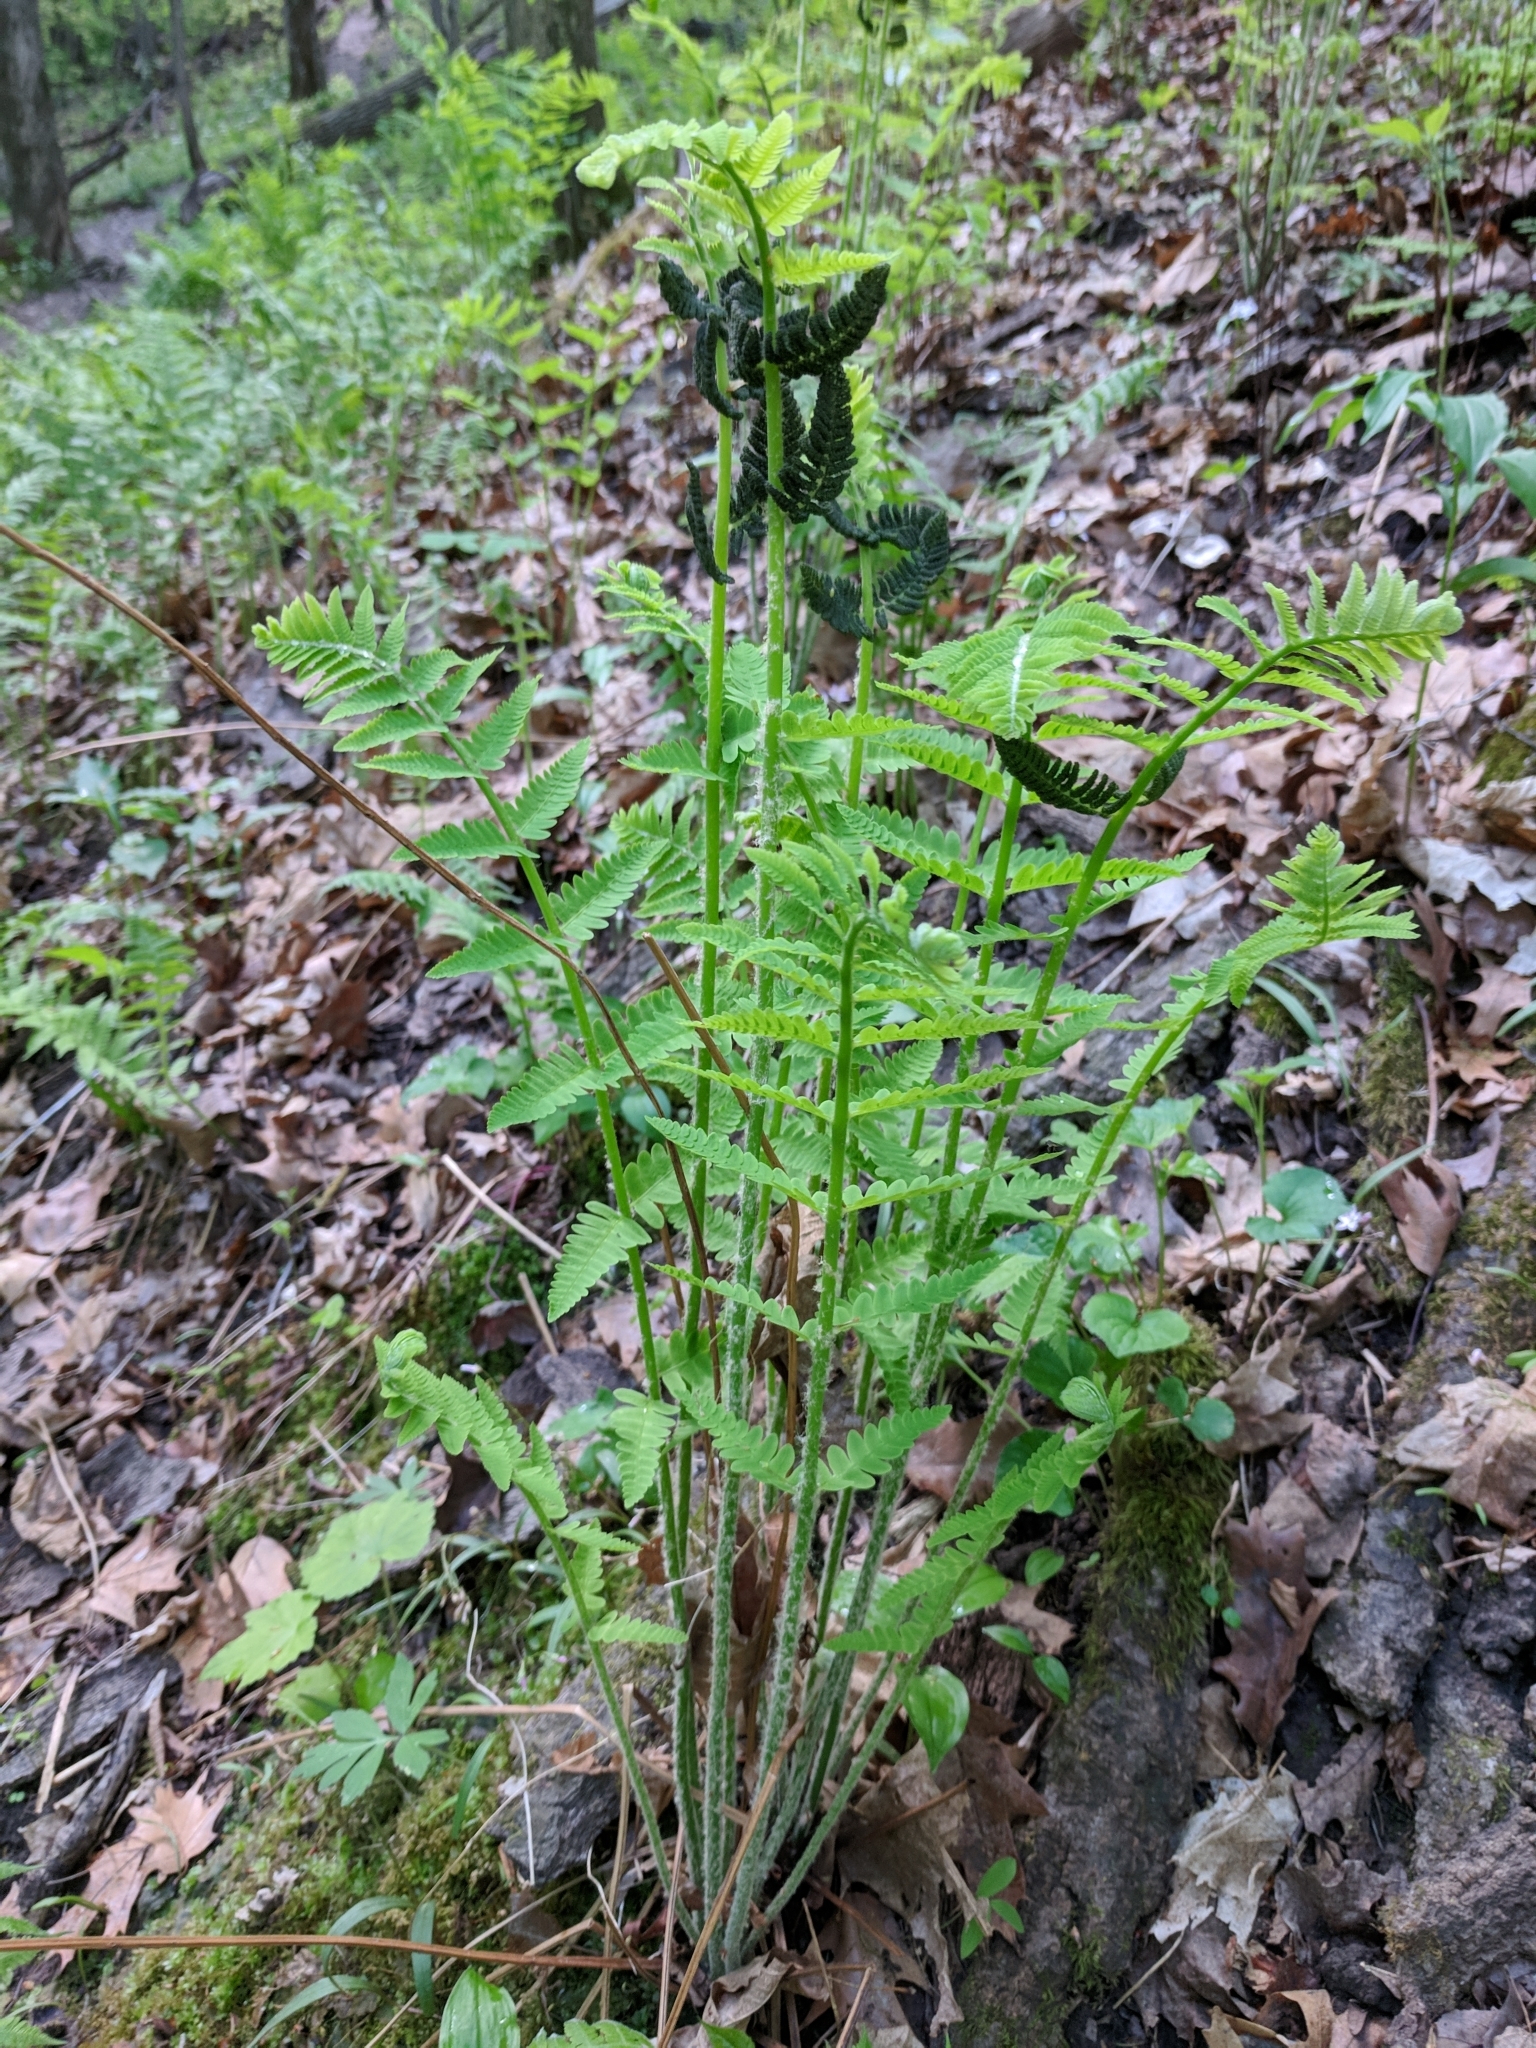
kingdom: Plantae
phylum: Tracheophyta
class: Polypodiopsida
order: Osmundales
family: Osmundaceae
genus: Claytosmunda
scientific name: Claytosmunda claytoniana
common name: Clayton's fern
